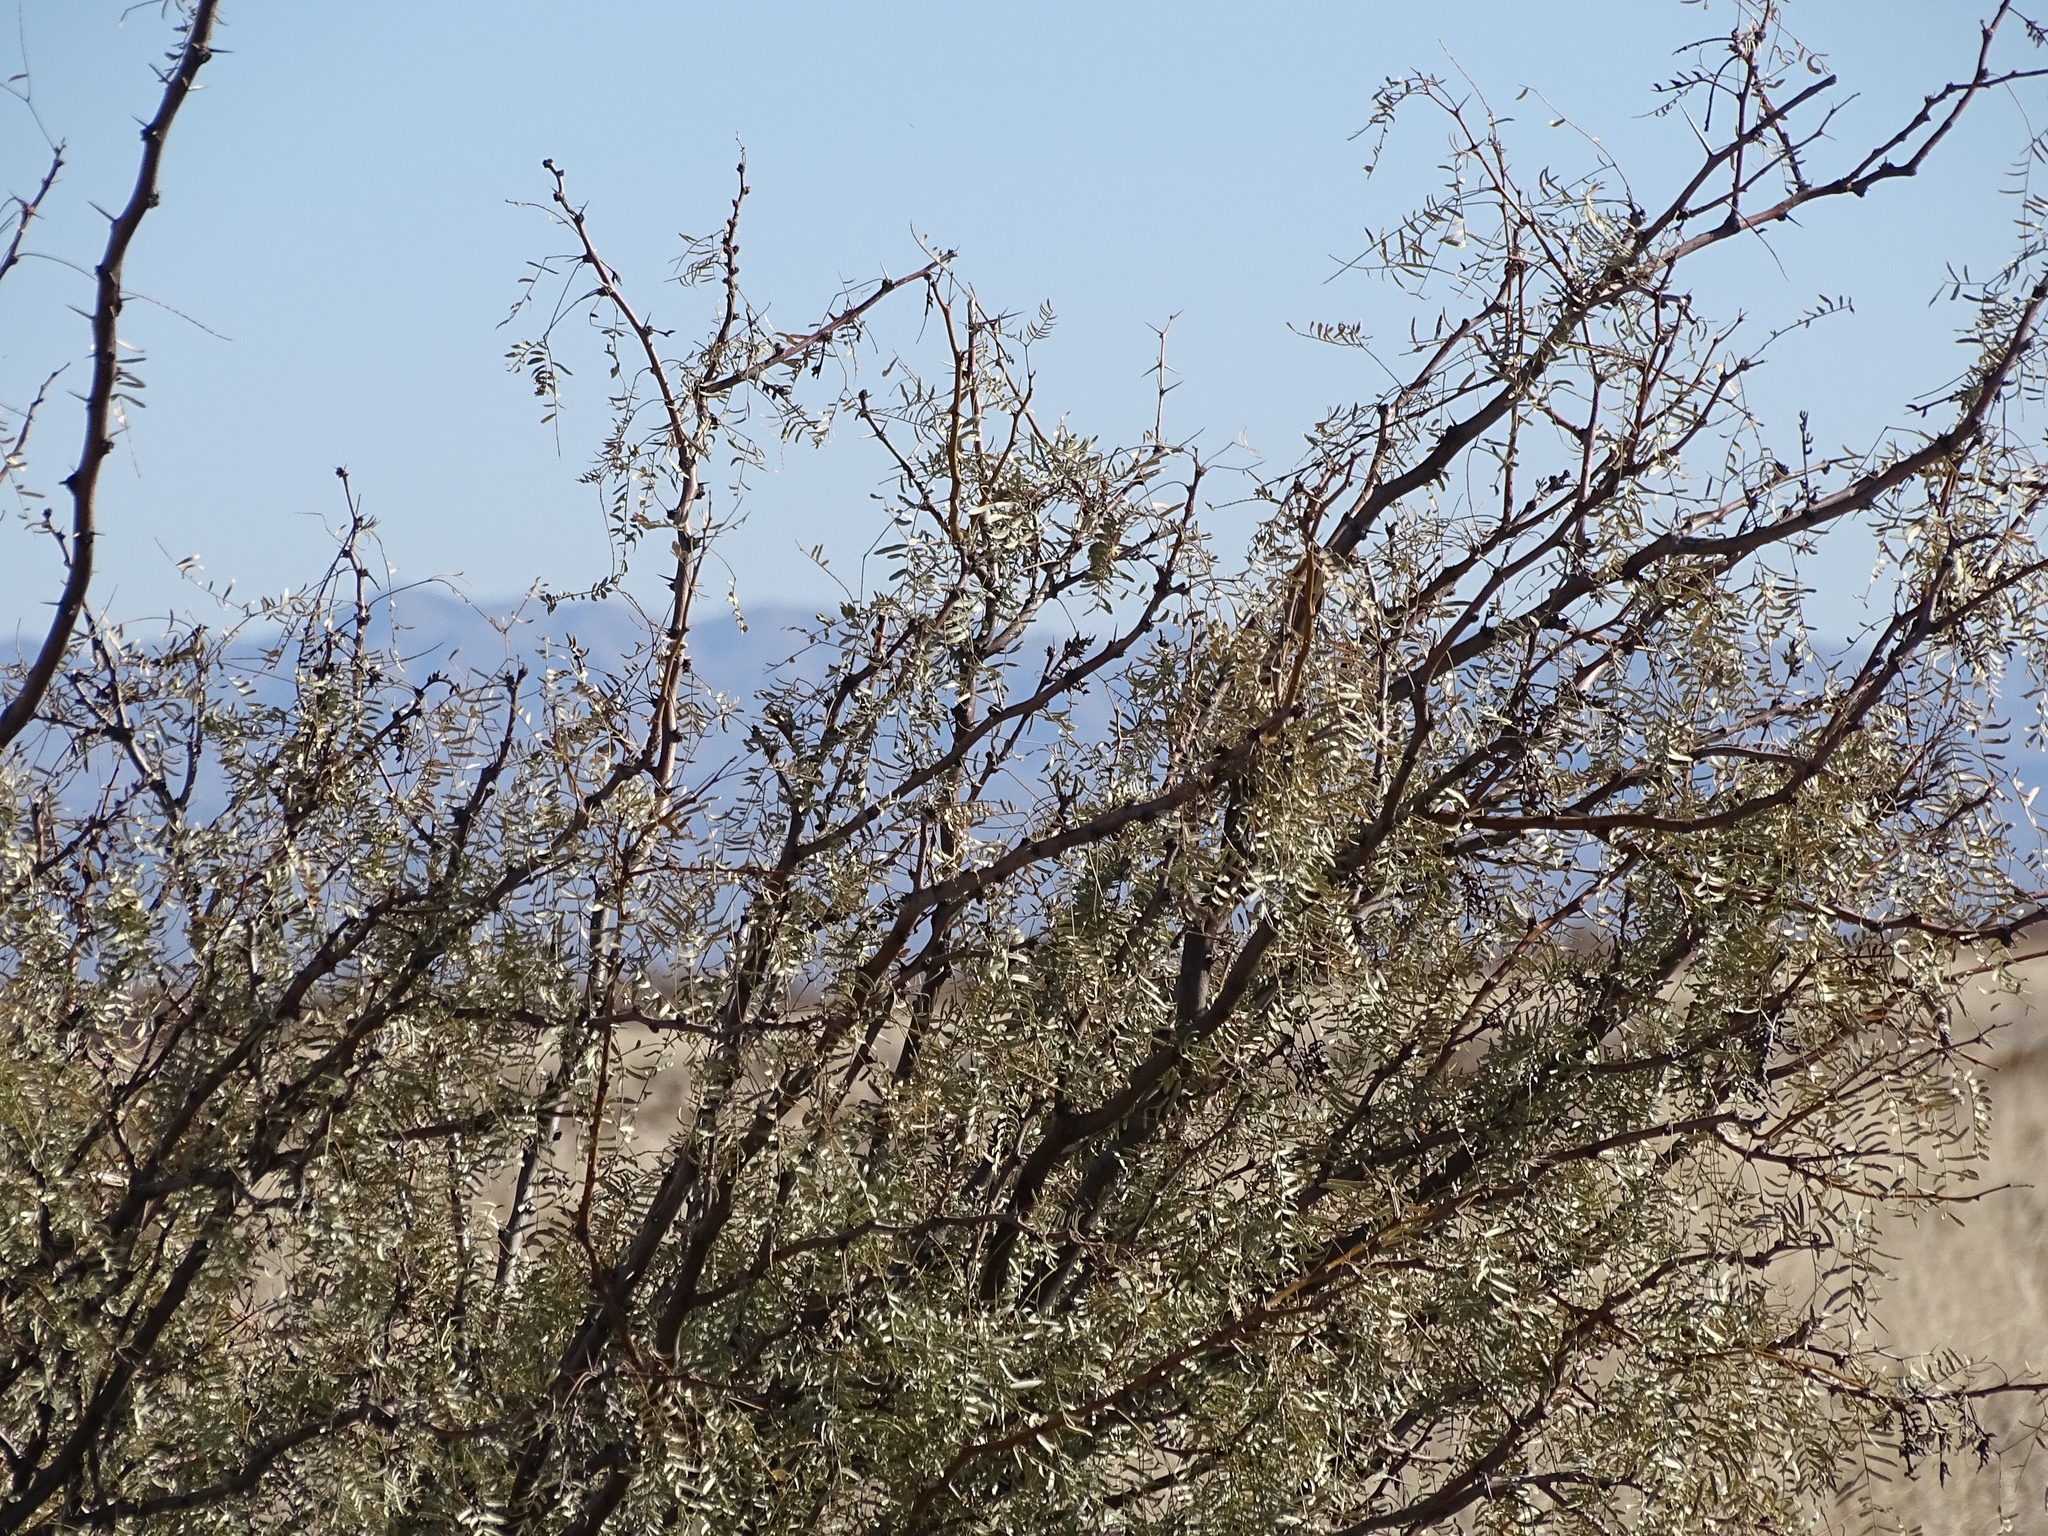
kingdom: Plantae
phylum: Tracheophyta
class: Magnoliopsida
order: Fabales
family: Fabaceae
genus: Prosopis
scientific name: Prosopis glandulosa
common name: Honey mesquite
